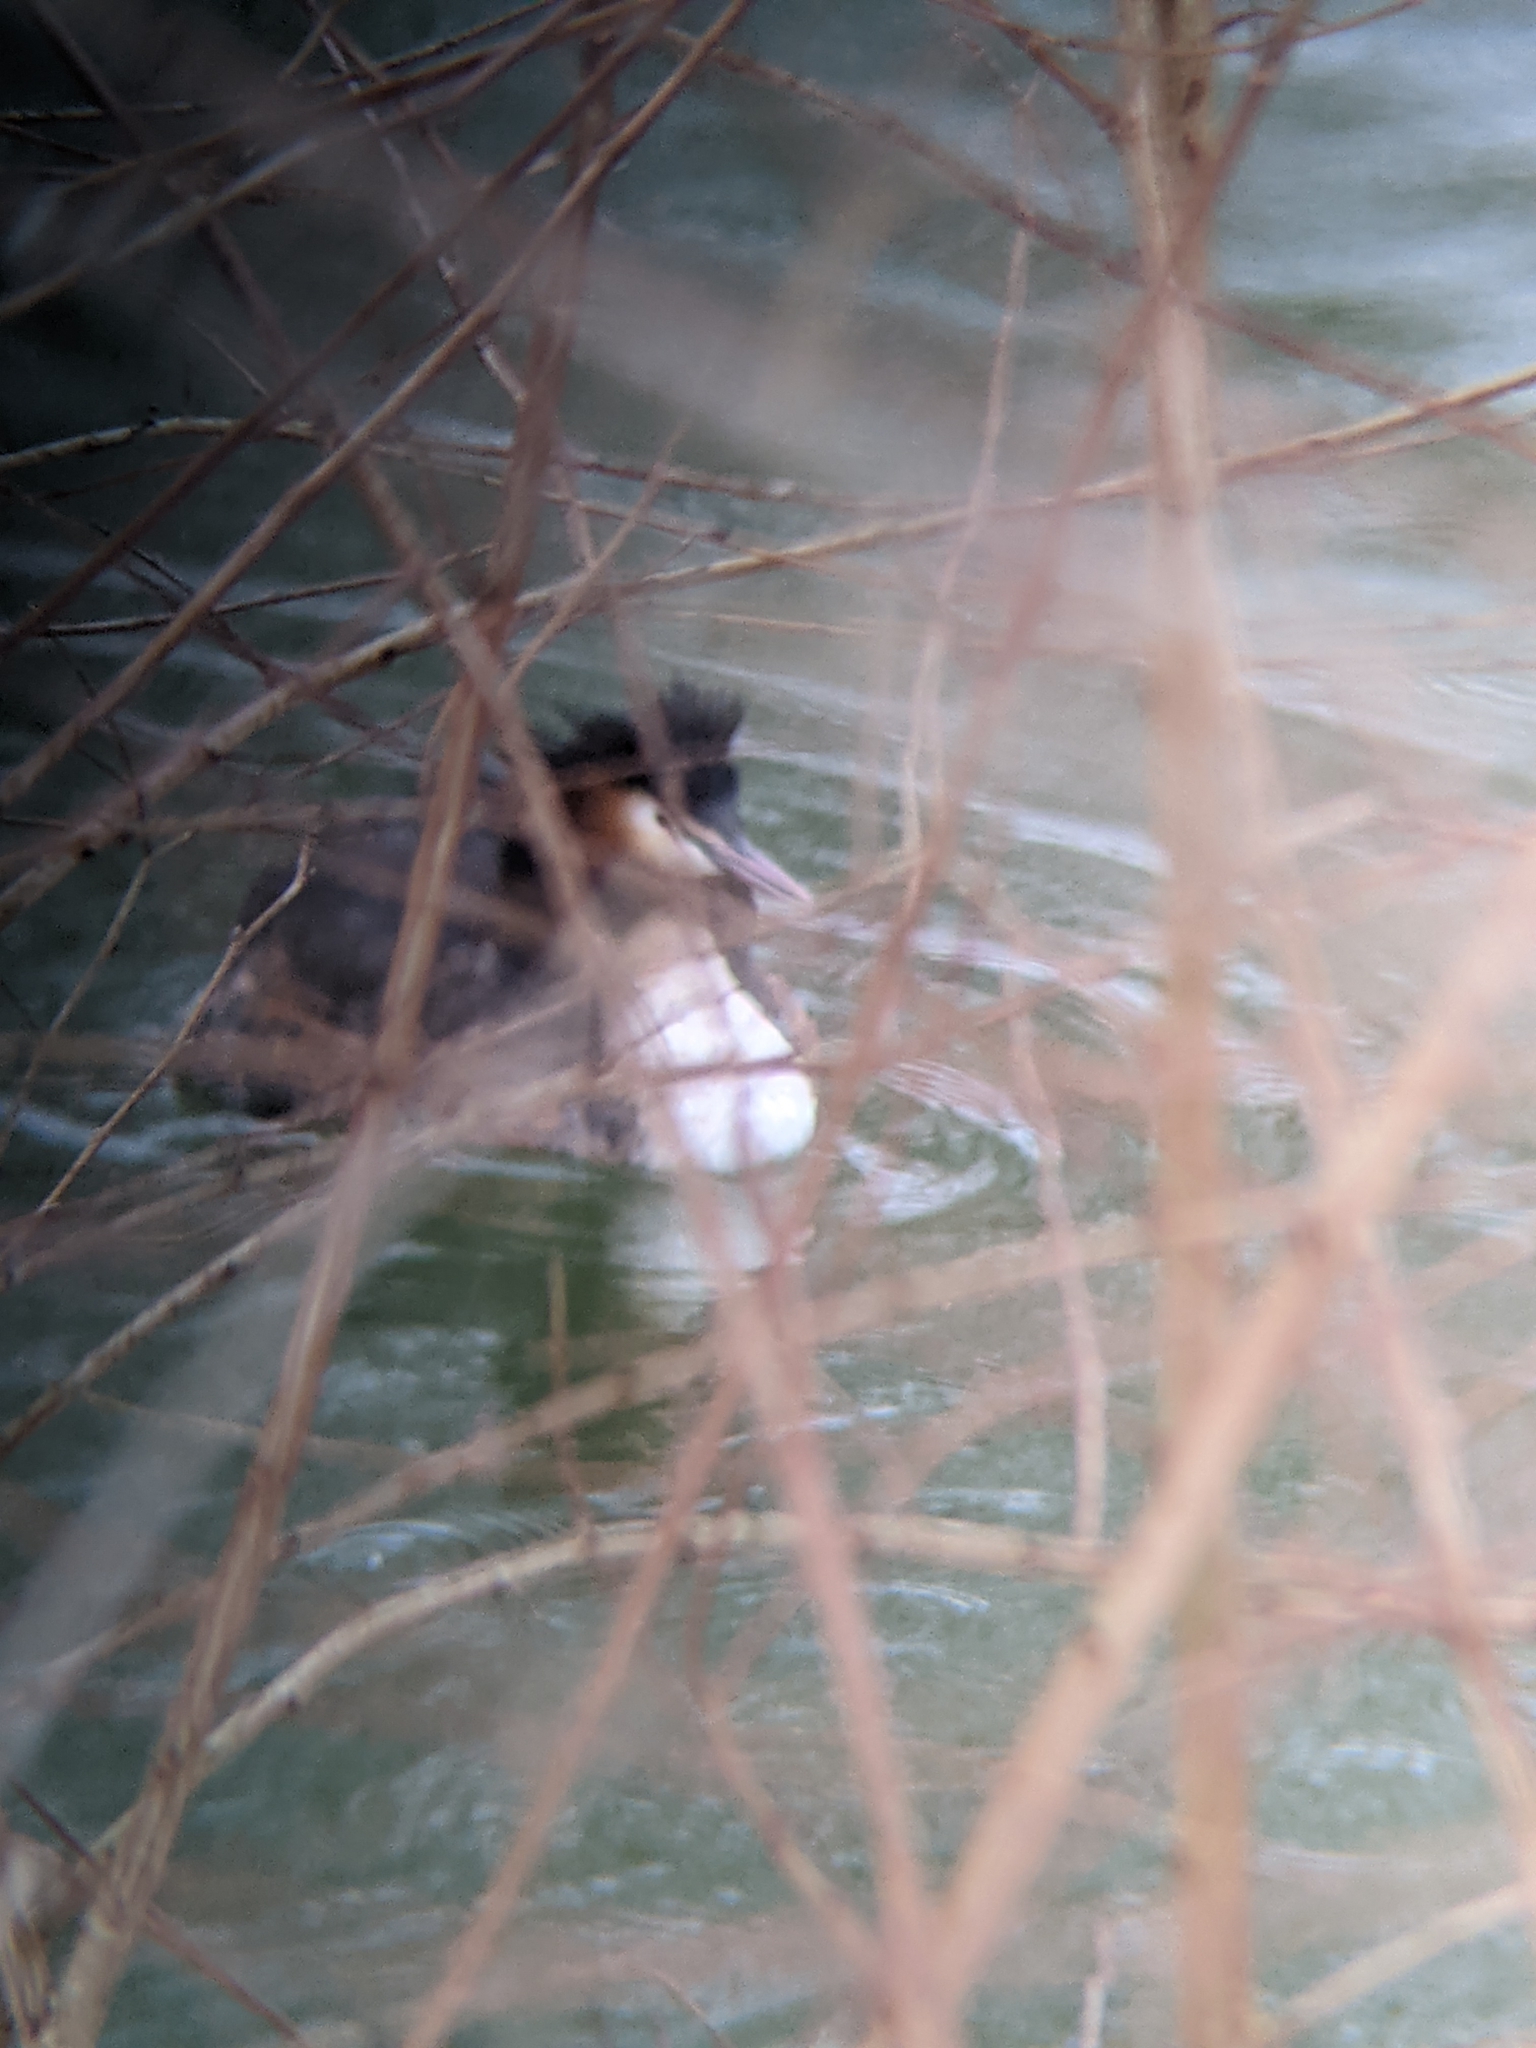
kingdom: Animalia
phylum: Chordata
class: Aves
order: Podicipediformes
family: Podicipedidae
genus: Podiceps
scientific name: Podiceps cristatus
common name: Great crested grebe
